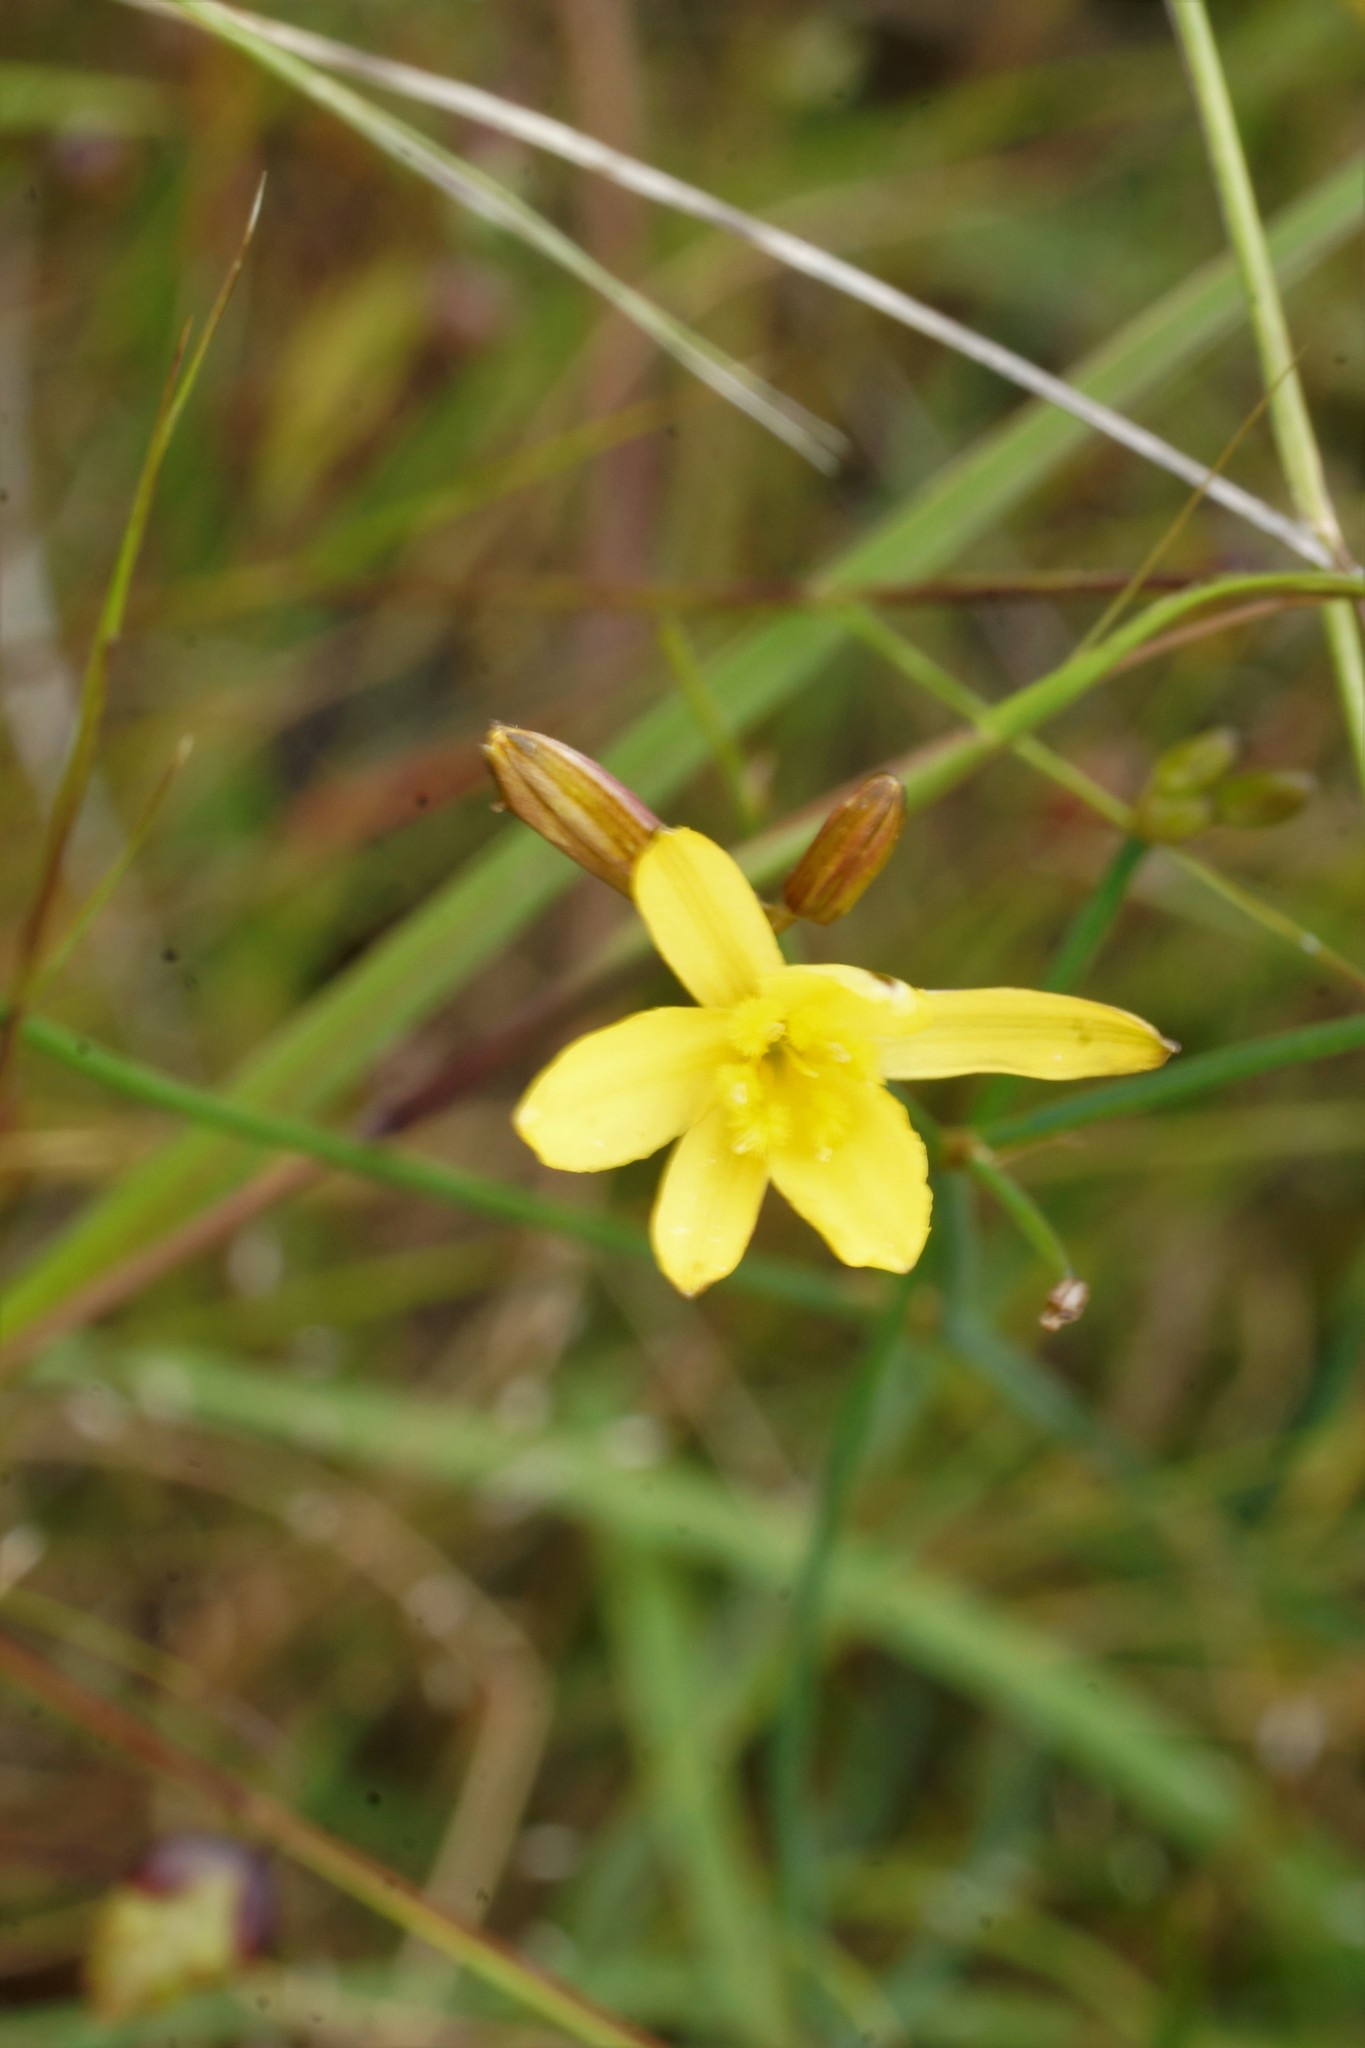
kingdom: Plantae
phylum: Tracheophyta
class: Liliopsida
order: Asparagales
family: Asphodelaceae
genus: Tricoryne
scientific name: Tricoryne elatior
